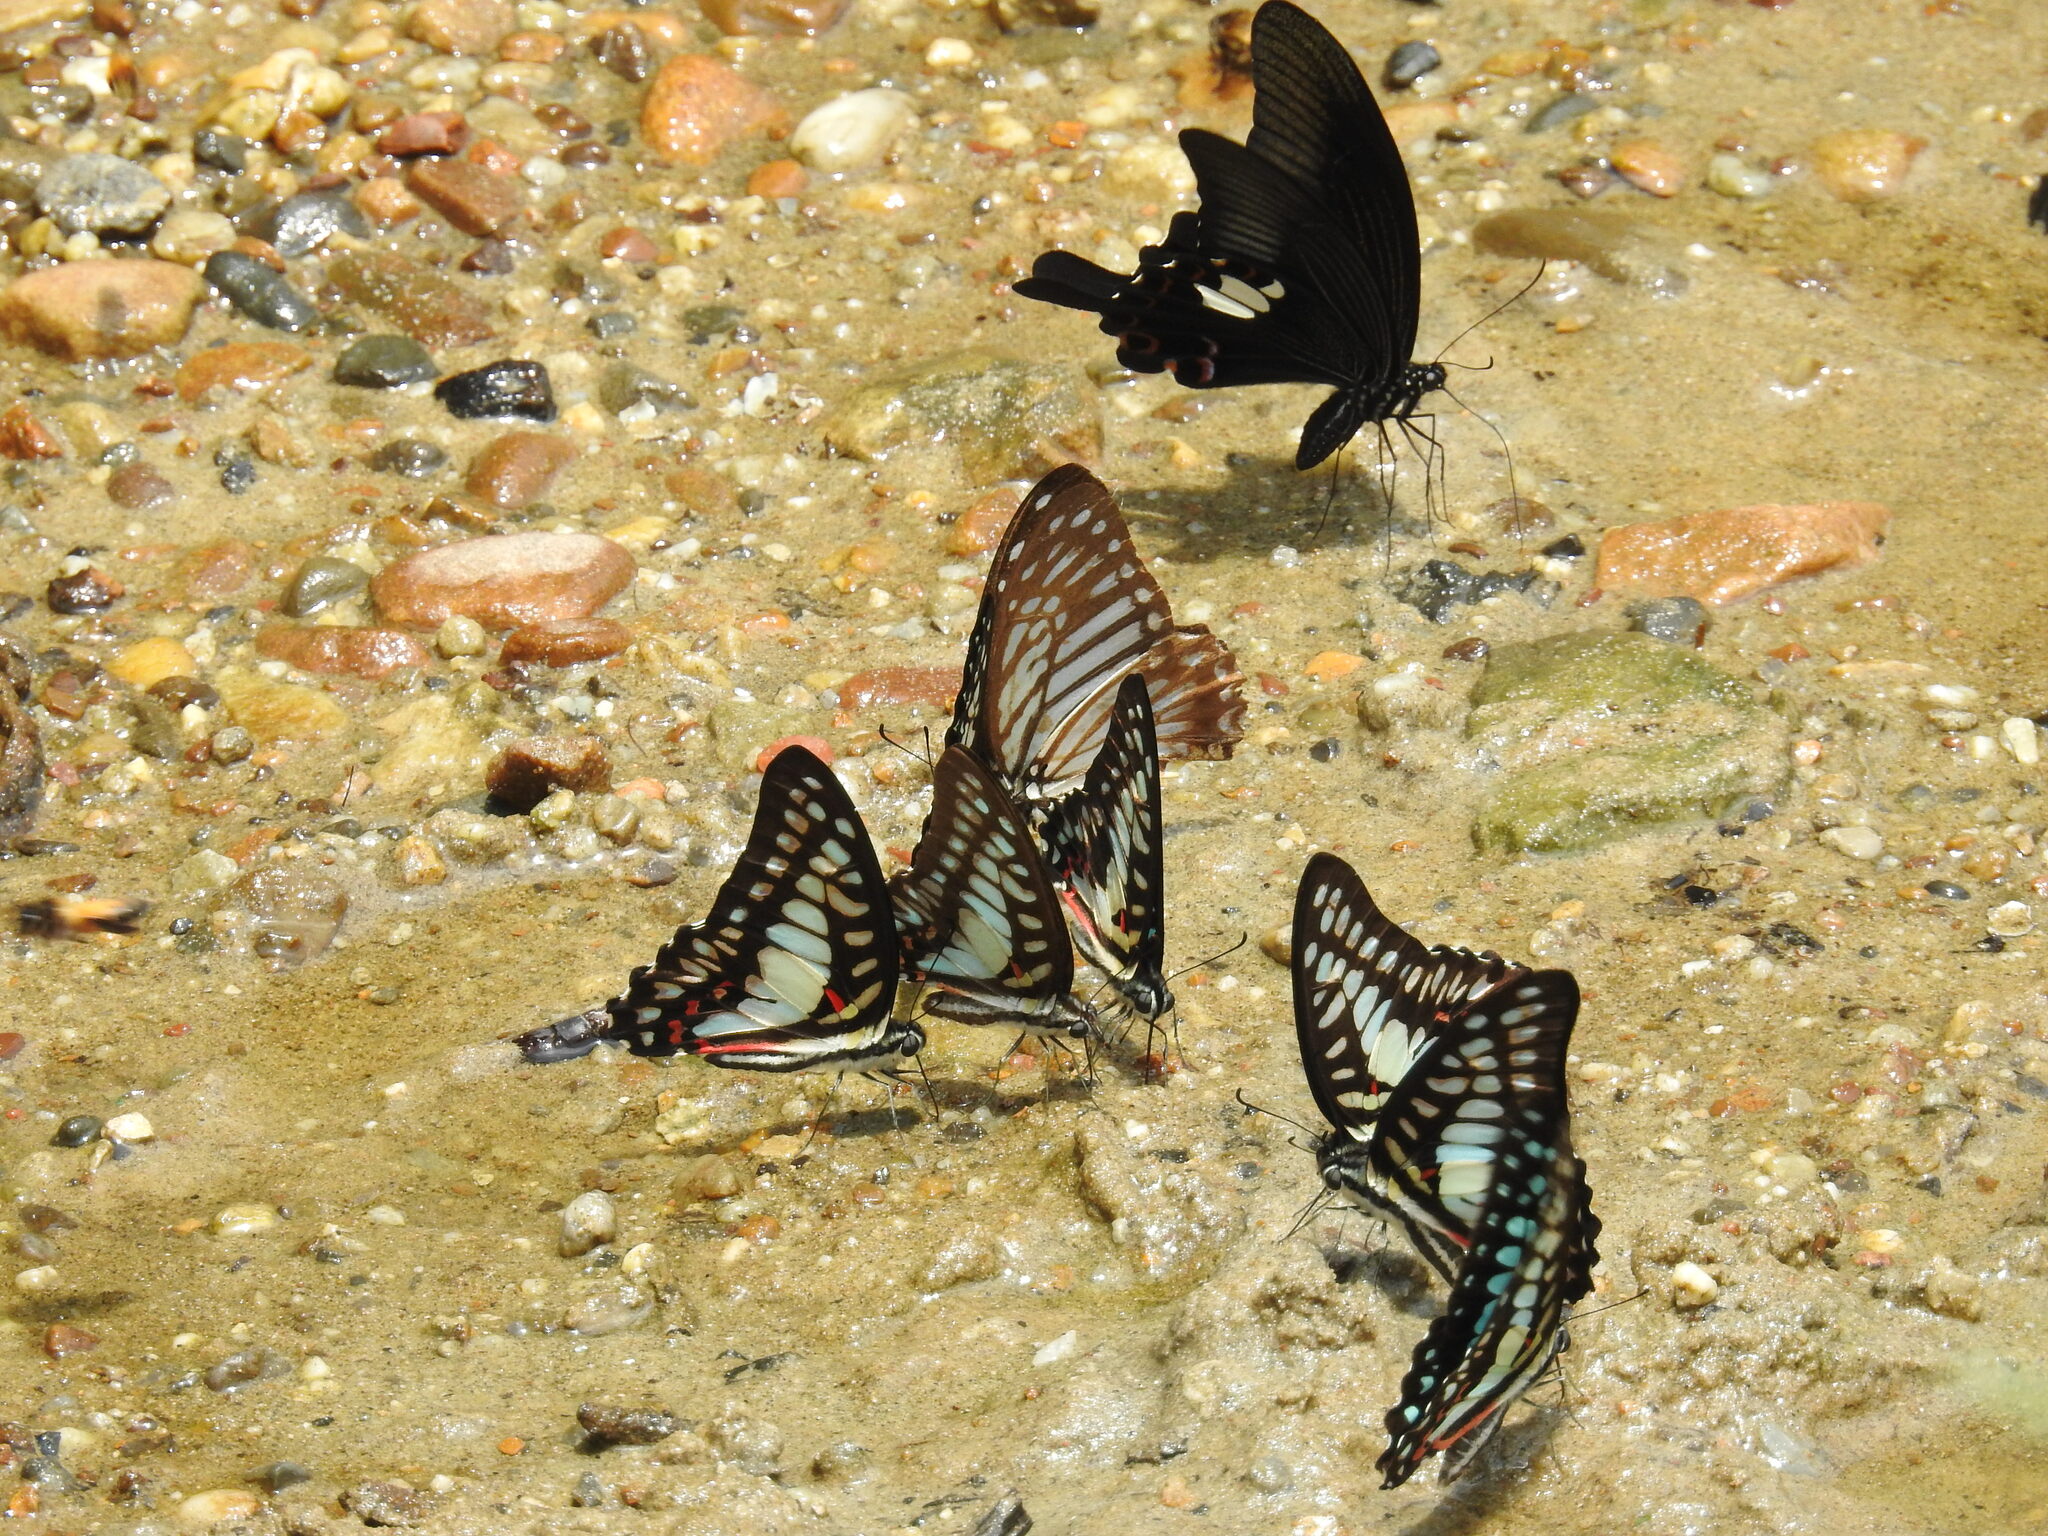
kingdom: Animalia
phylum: Arthropoda
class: Insecta
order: Lepidoptera
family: Papilionidae
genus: Graphium
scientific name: Graphium xenocles
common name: Great zebra
